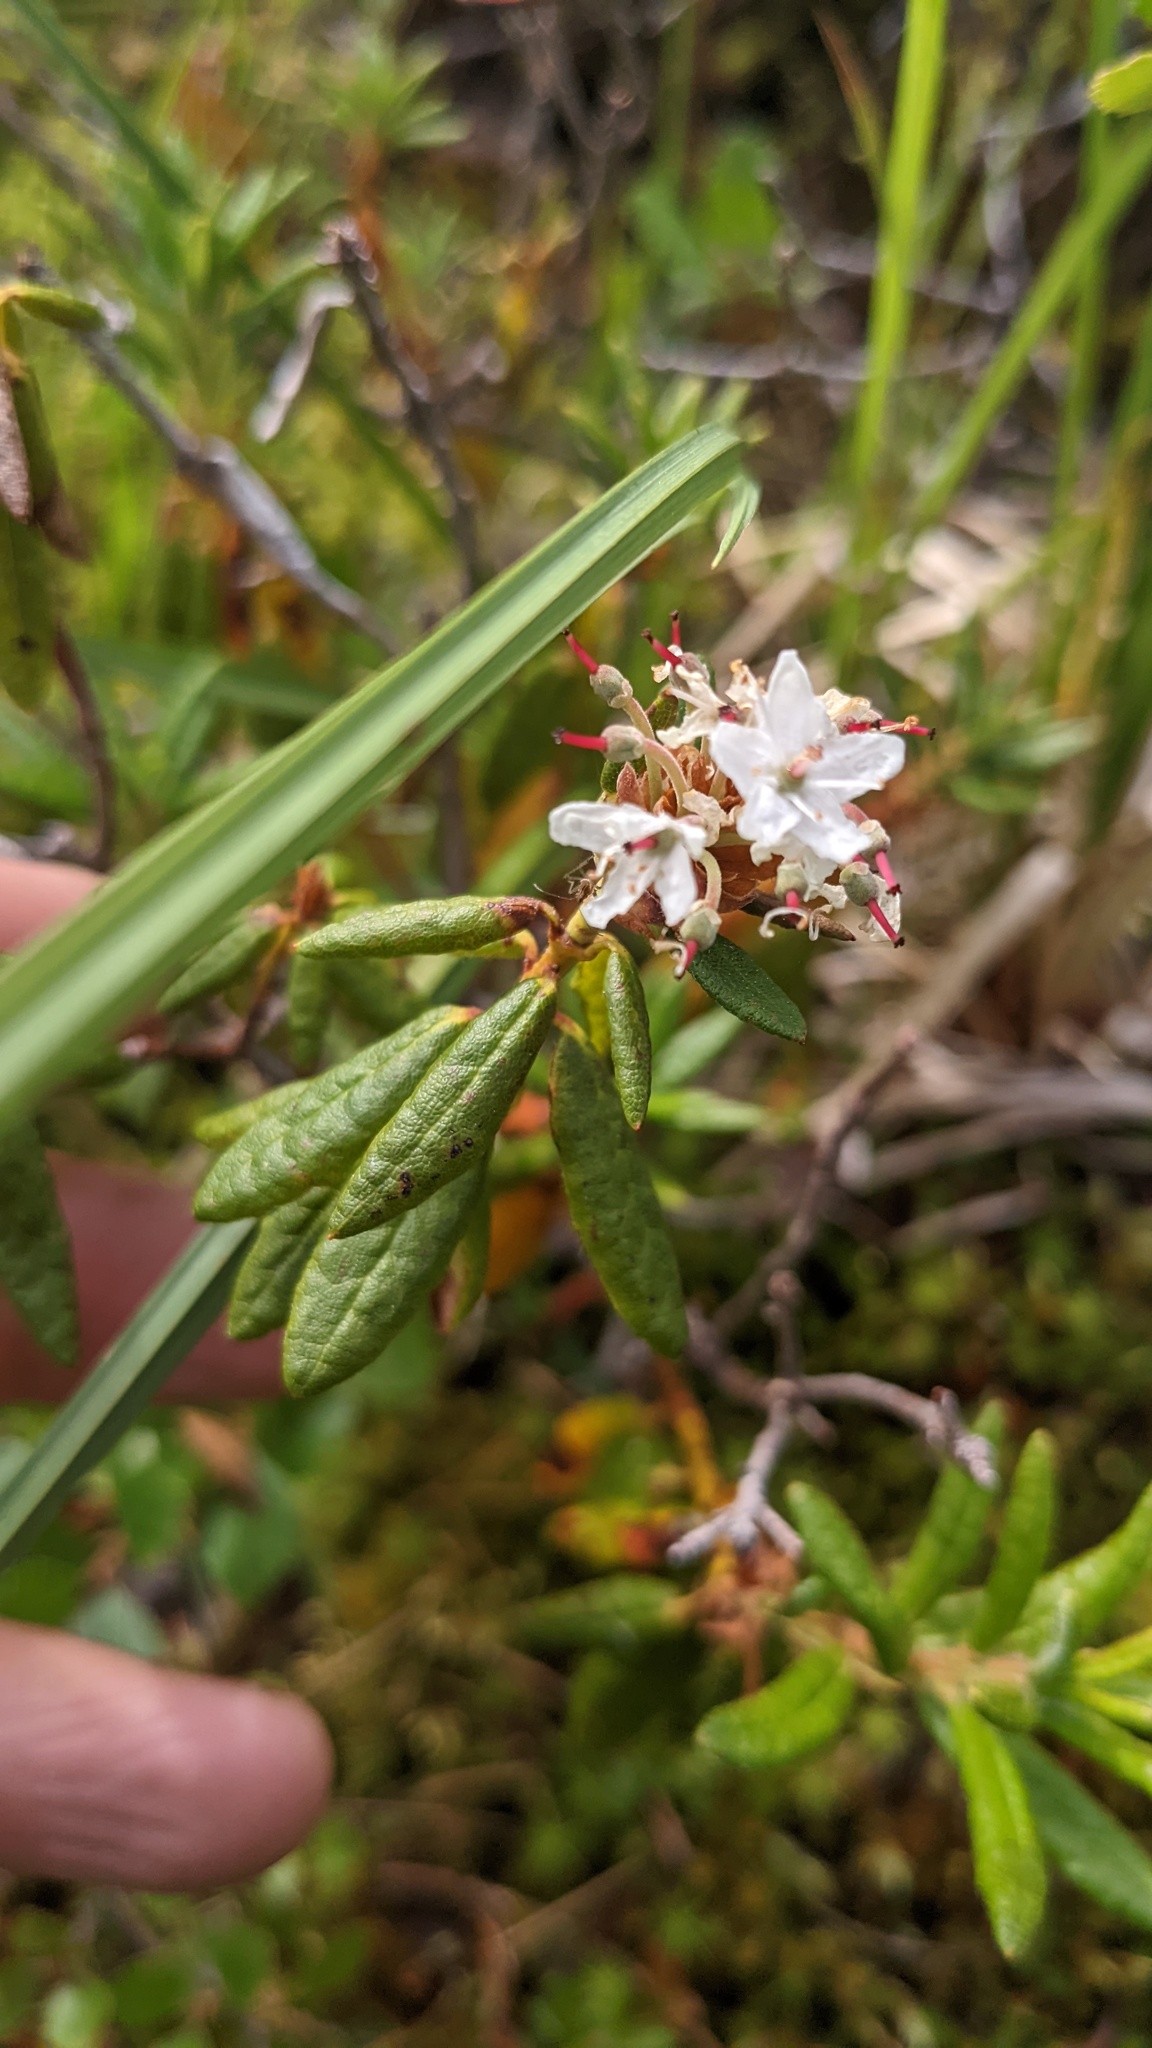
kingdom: Plantae
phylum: Tracheophyta
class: Magnoliopsida
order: Ericales
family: Ericaceae
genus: Rhododendron
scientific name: Rhododendron groenlandicum
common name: Bog labrador tea
